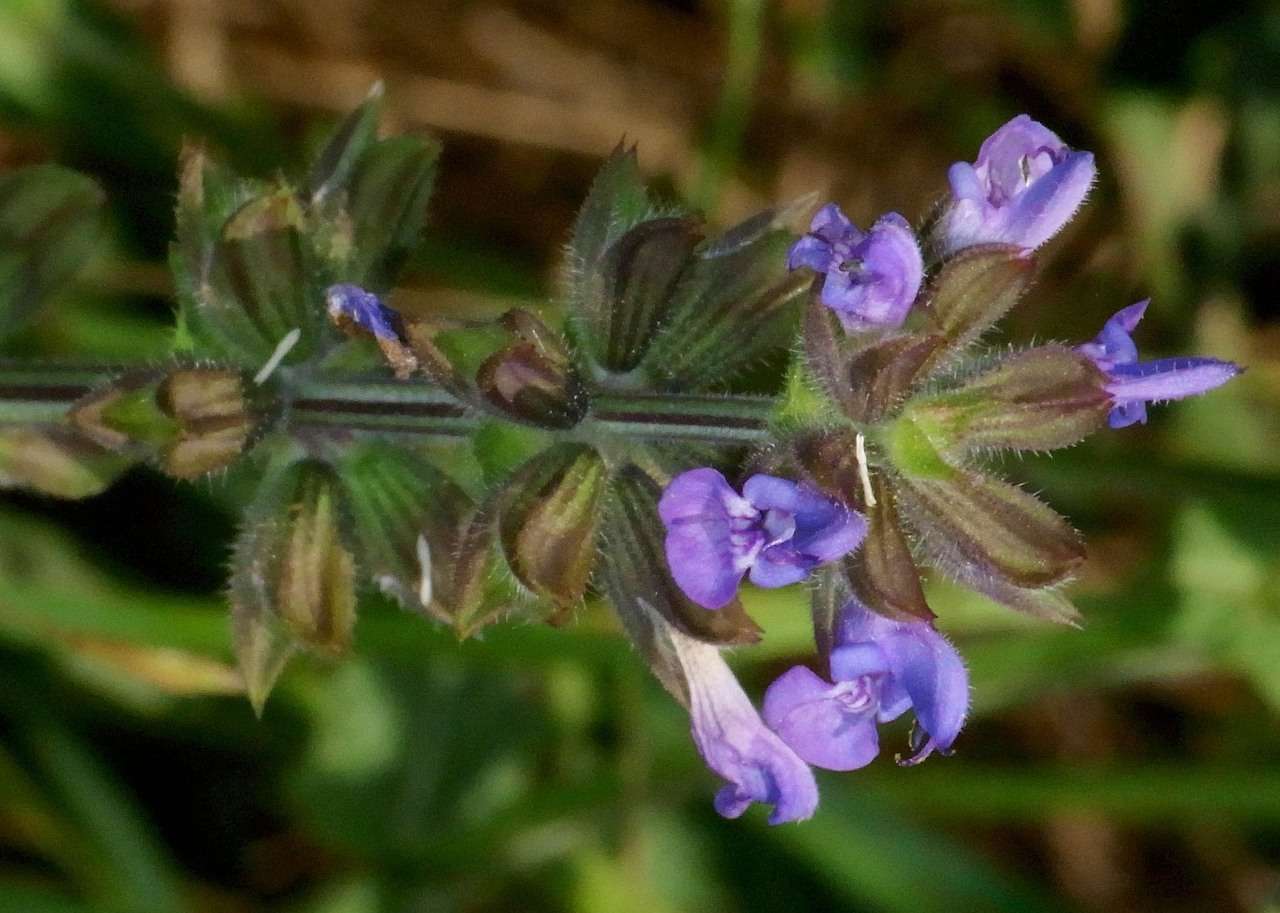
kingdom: Plantae
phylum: Tracheophyta
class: Magnoliopsida
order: Lamiales
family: Lamiaceae
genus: Salvia
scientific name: Salvia verbenaca
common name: Wild clary
